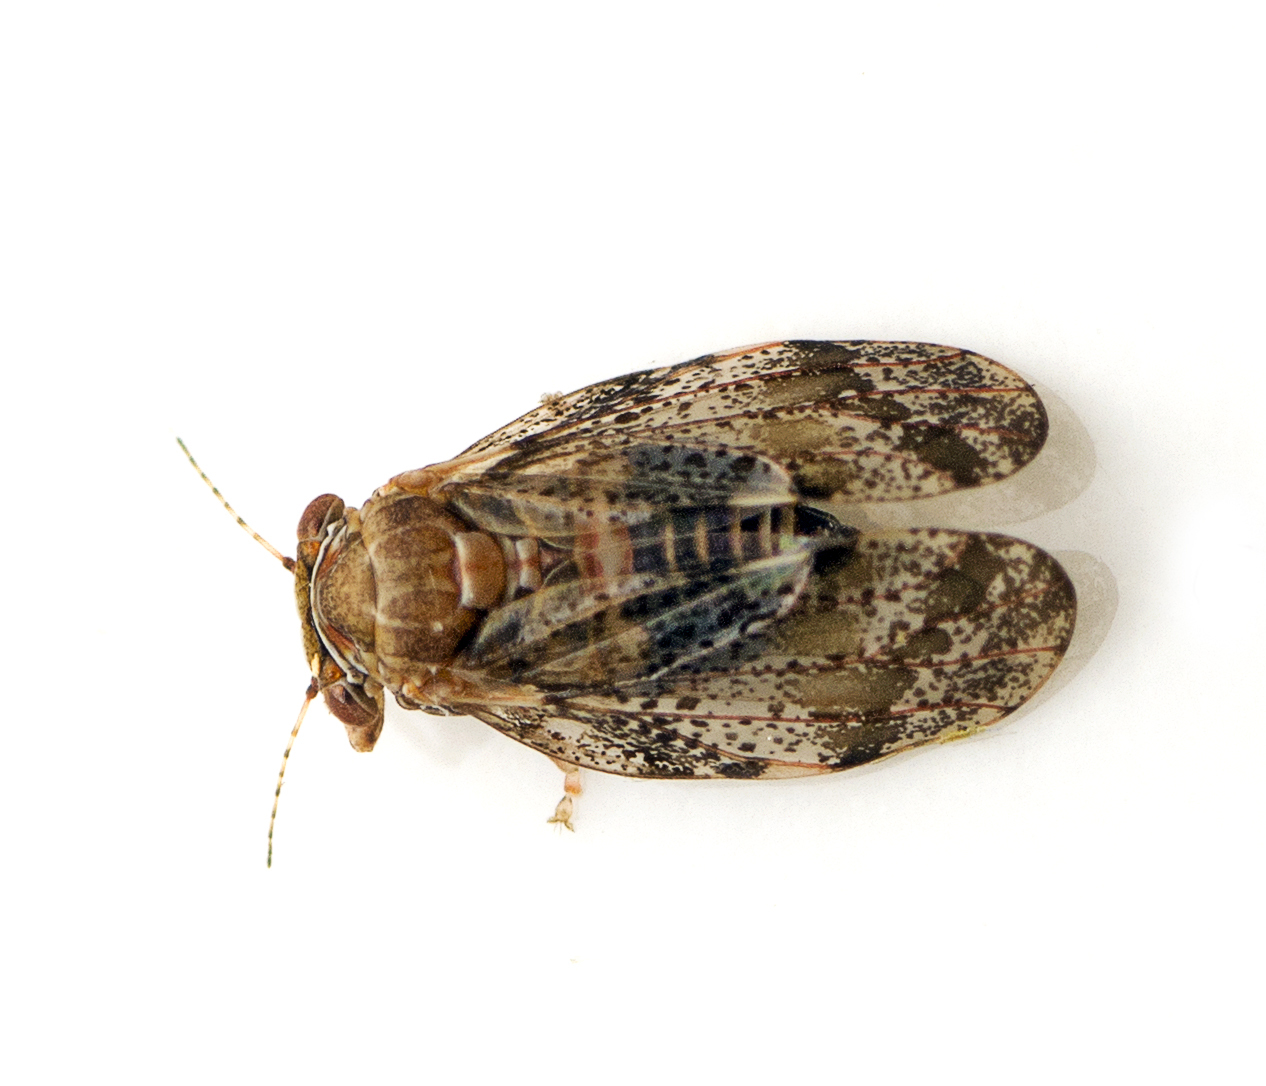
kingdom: Animalia
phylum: Arthropoda
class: Insecta
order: Hemiptera
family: Aphalaridae
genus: Creiis
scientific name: Creiis lituratus
